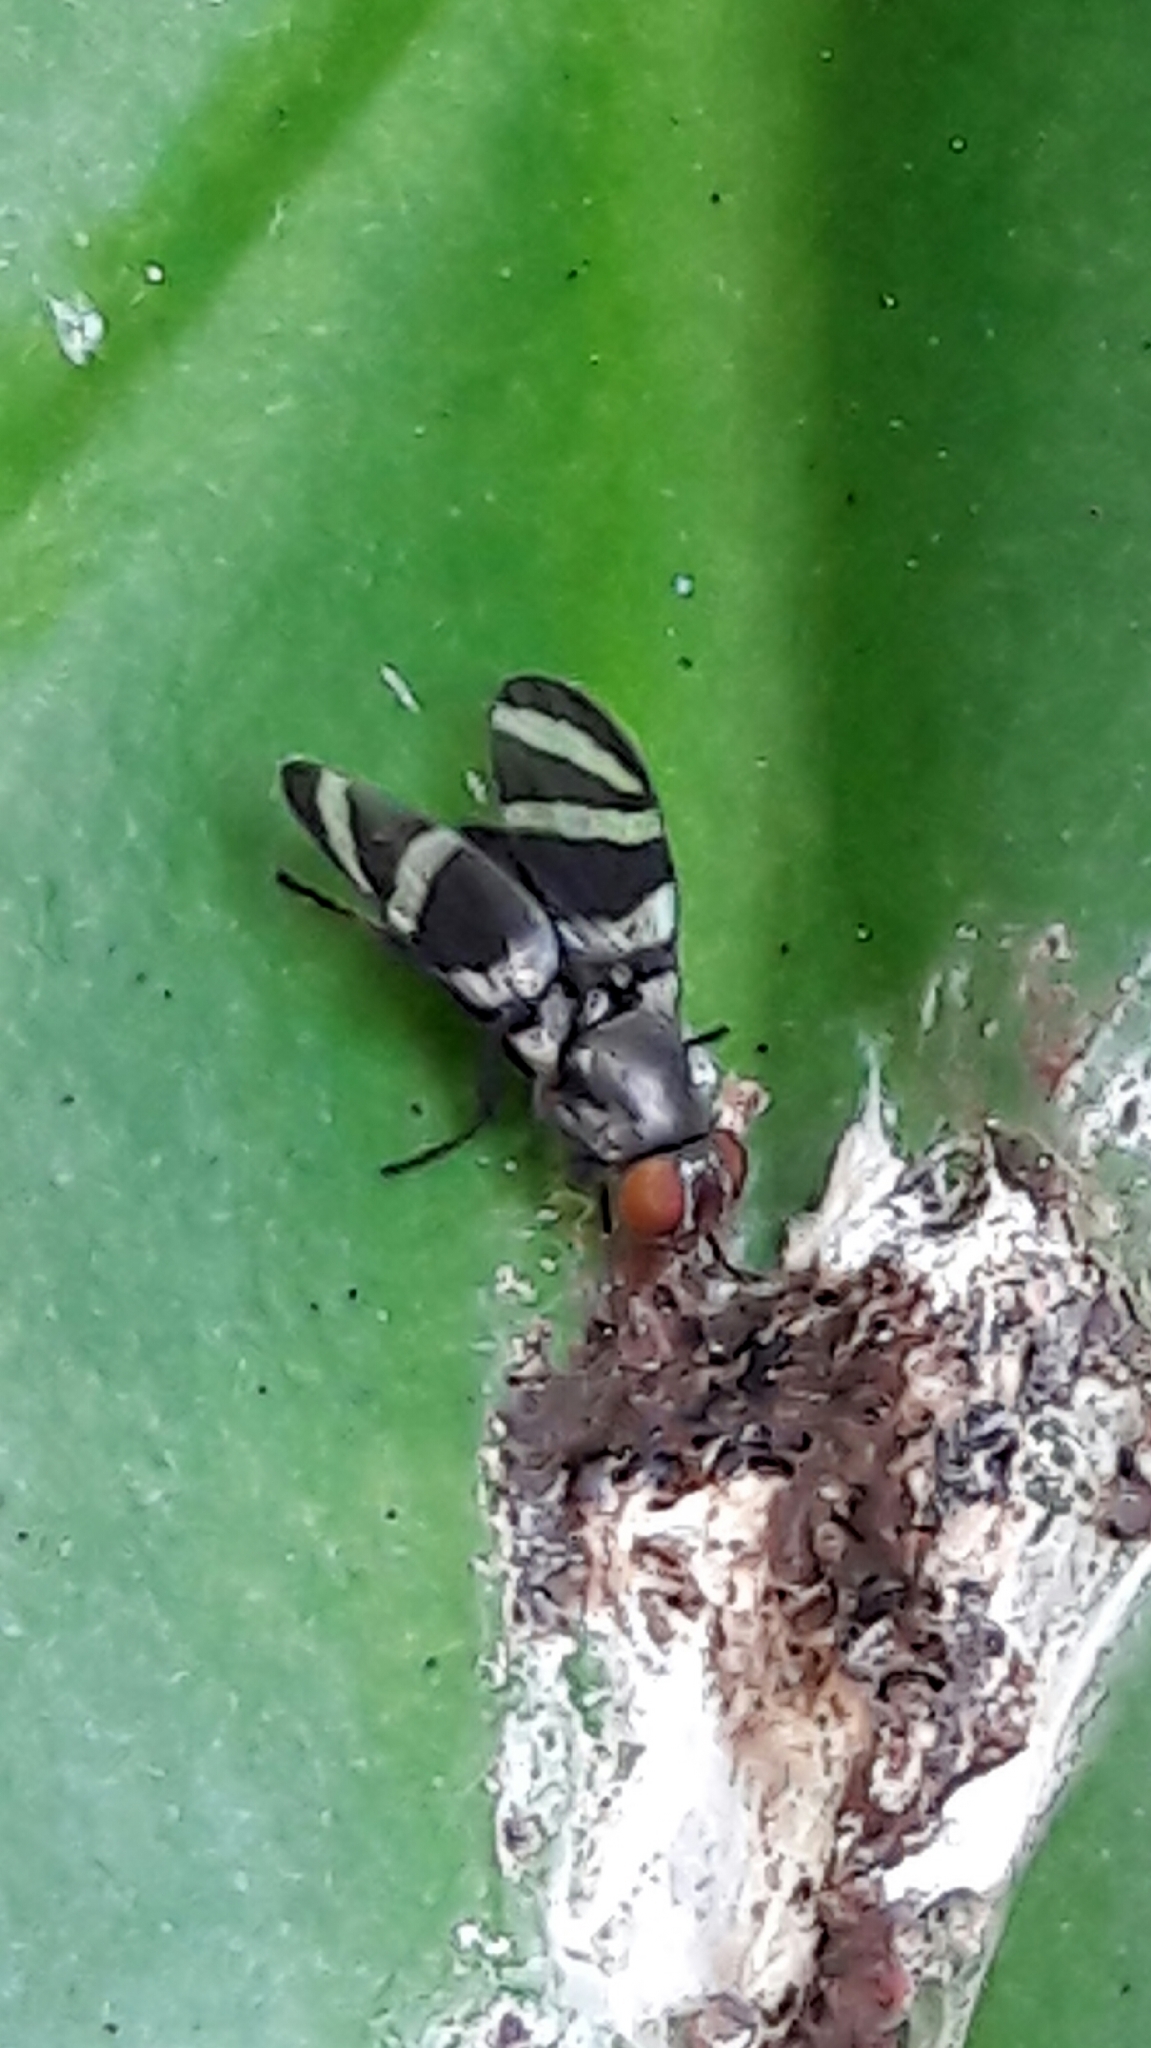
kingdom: Animalia
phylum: Arthropoda
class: Insecta
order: Diptera
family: Ulidiidae
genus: Euxesta
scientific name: Euxesta
